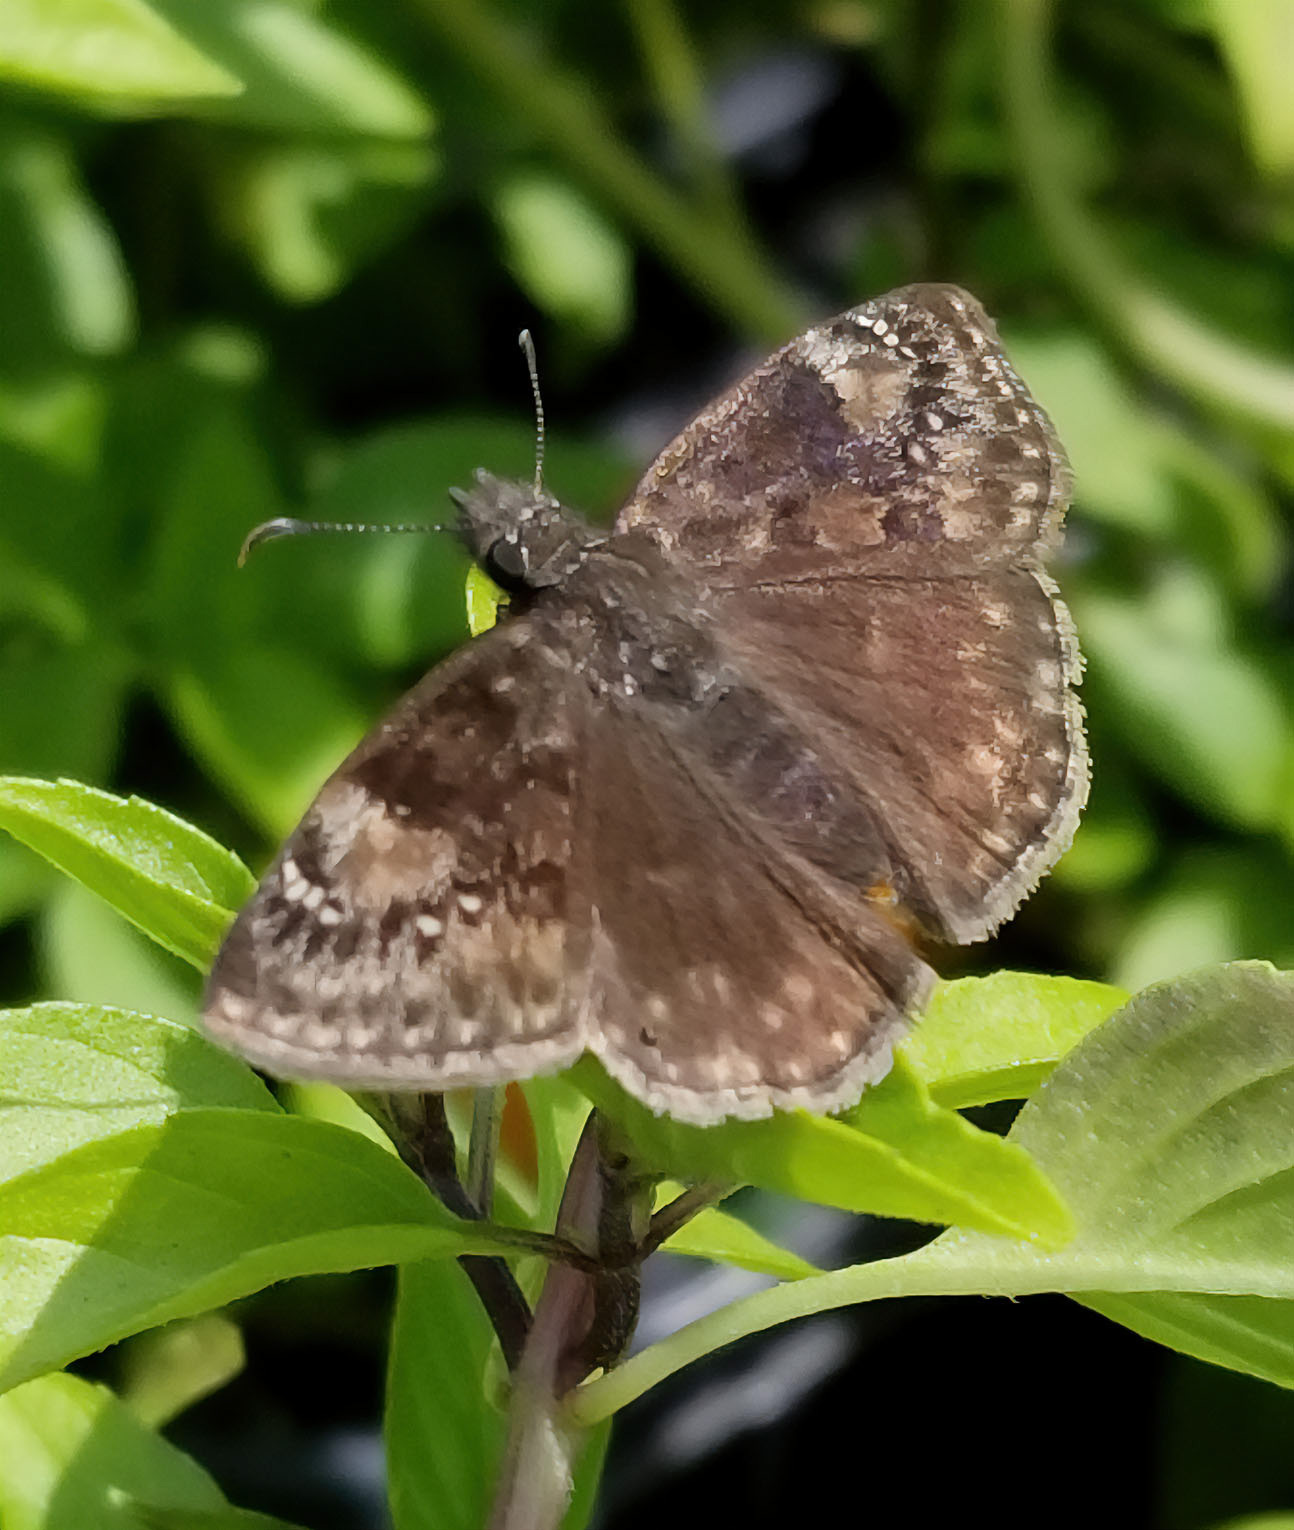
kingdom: Animalia
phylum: Arthropoda
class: Insecta
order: Lepidoptera
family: Hesperiidae
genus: Erynnis
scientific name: Erynnis baptisiae
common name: Wild indigo duskywing
